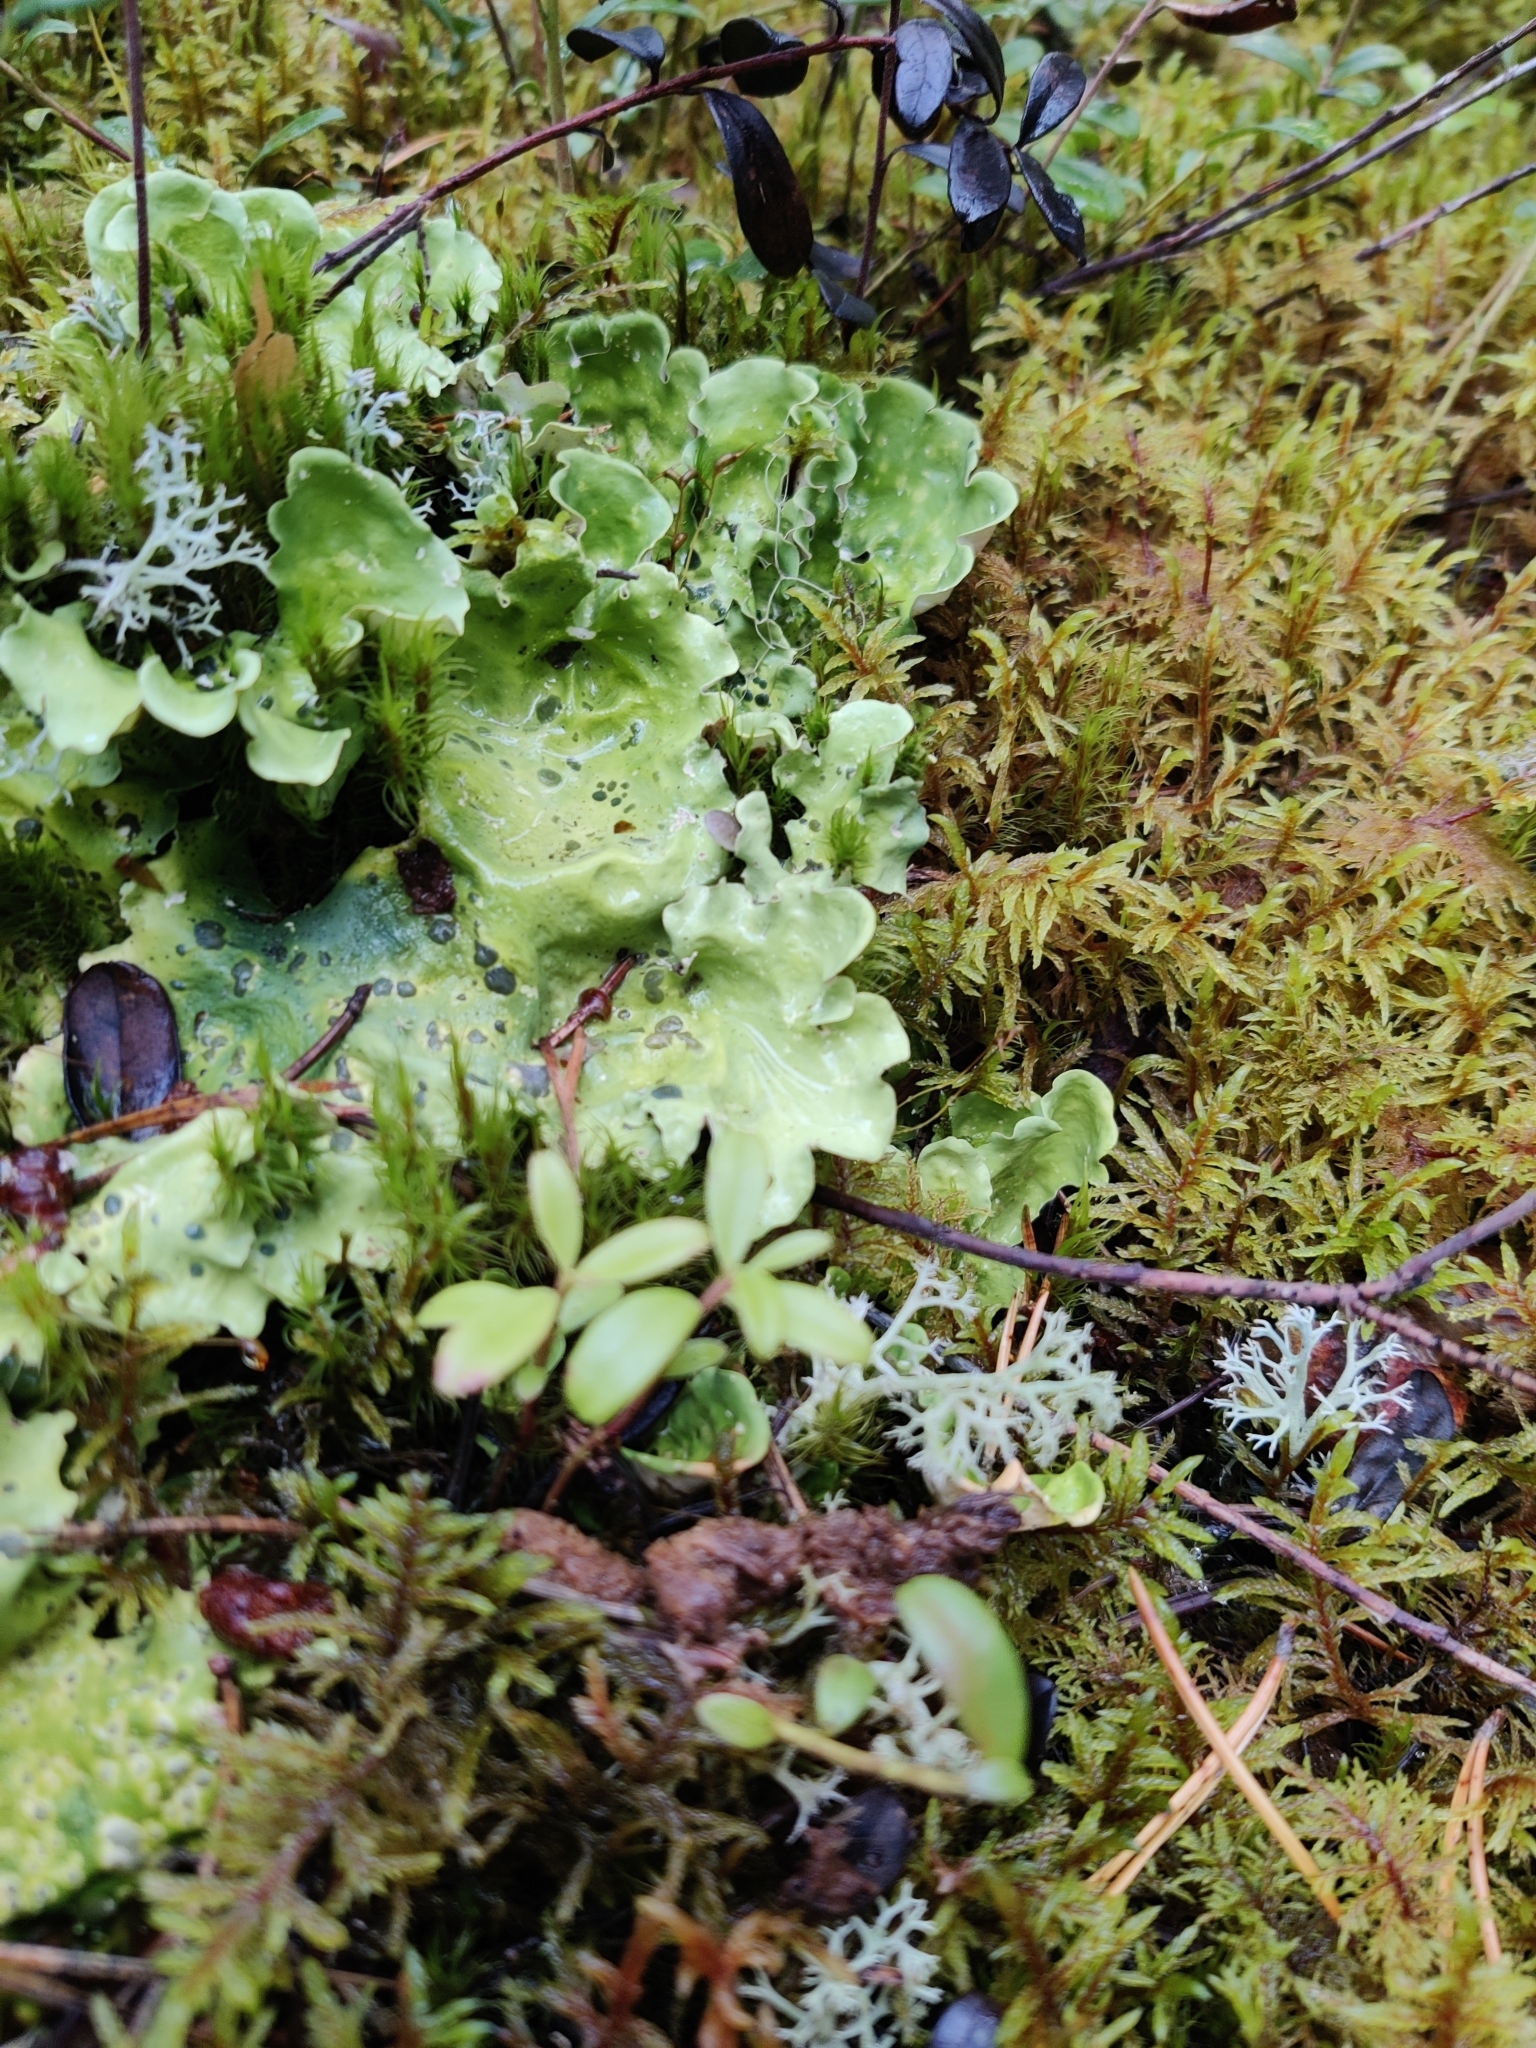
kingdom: Fungi
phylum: Ascomycota
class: Lecanoromycetes
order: Peltigerales
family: Nephromataceae
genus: Nephroma
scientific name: Nephroma arcticum
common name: Arctic kidney-lichen
